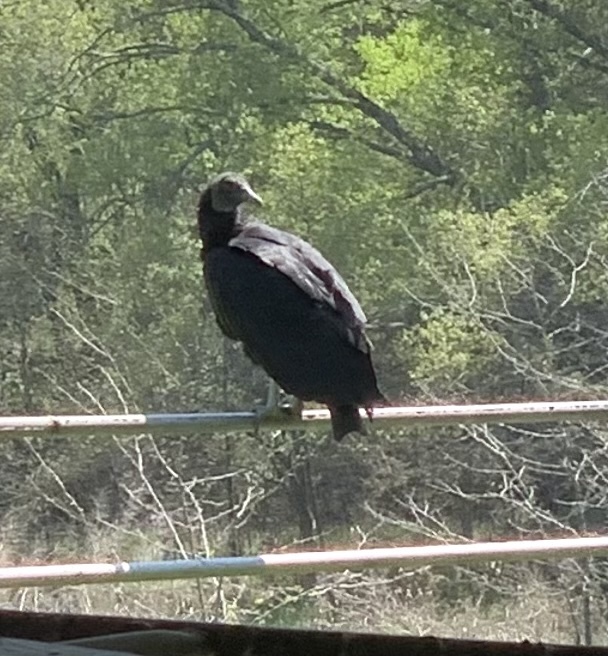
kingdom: Animalia
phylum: Chordata
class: Aves
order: Accipitriformes
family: Cathartidae
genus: Coragyps
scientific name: Coragyps atratus
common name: Black vulture
